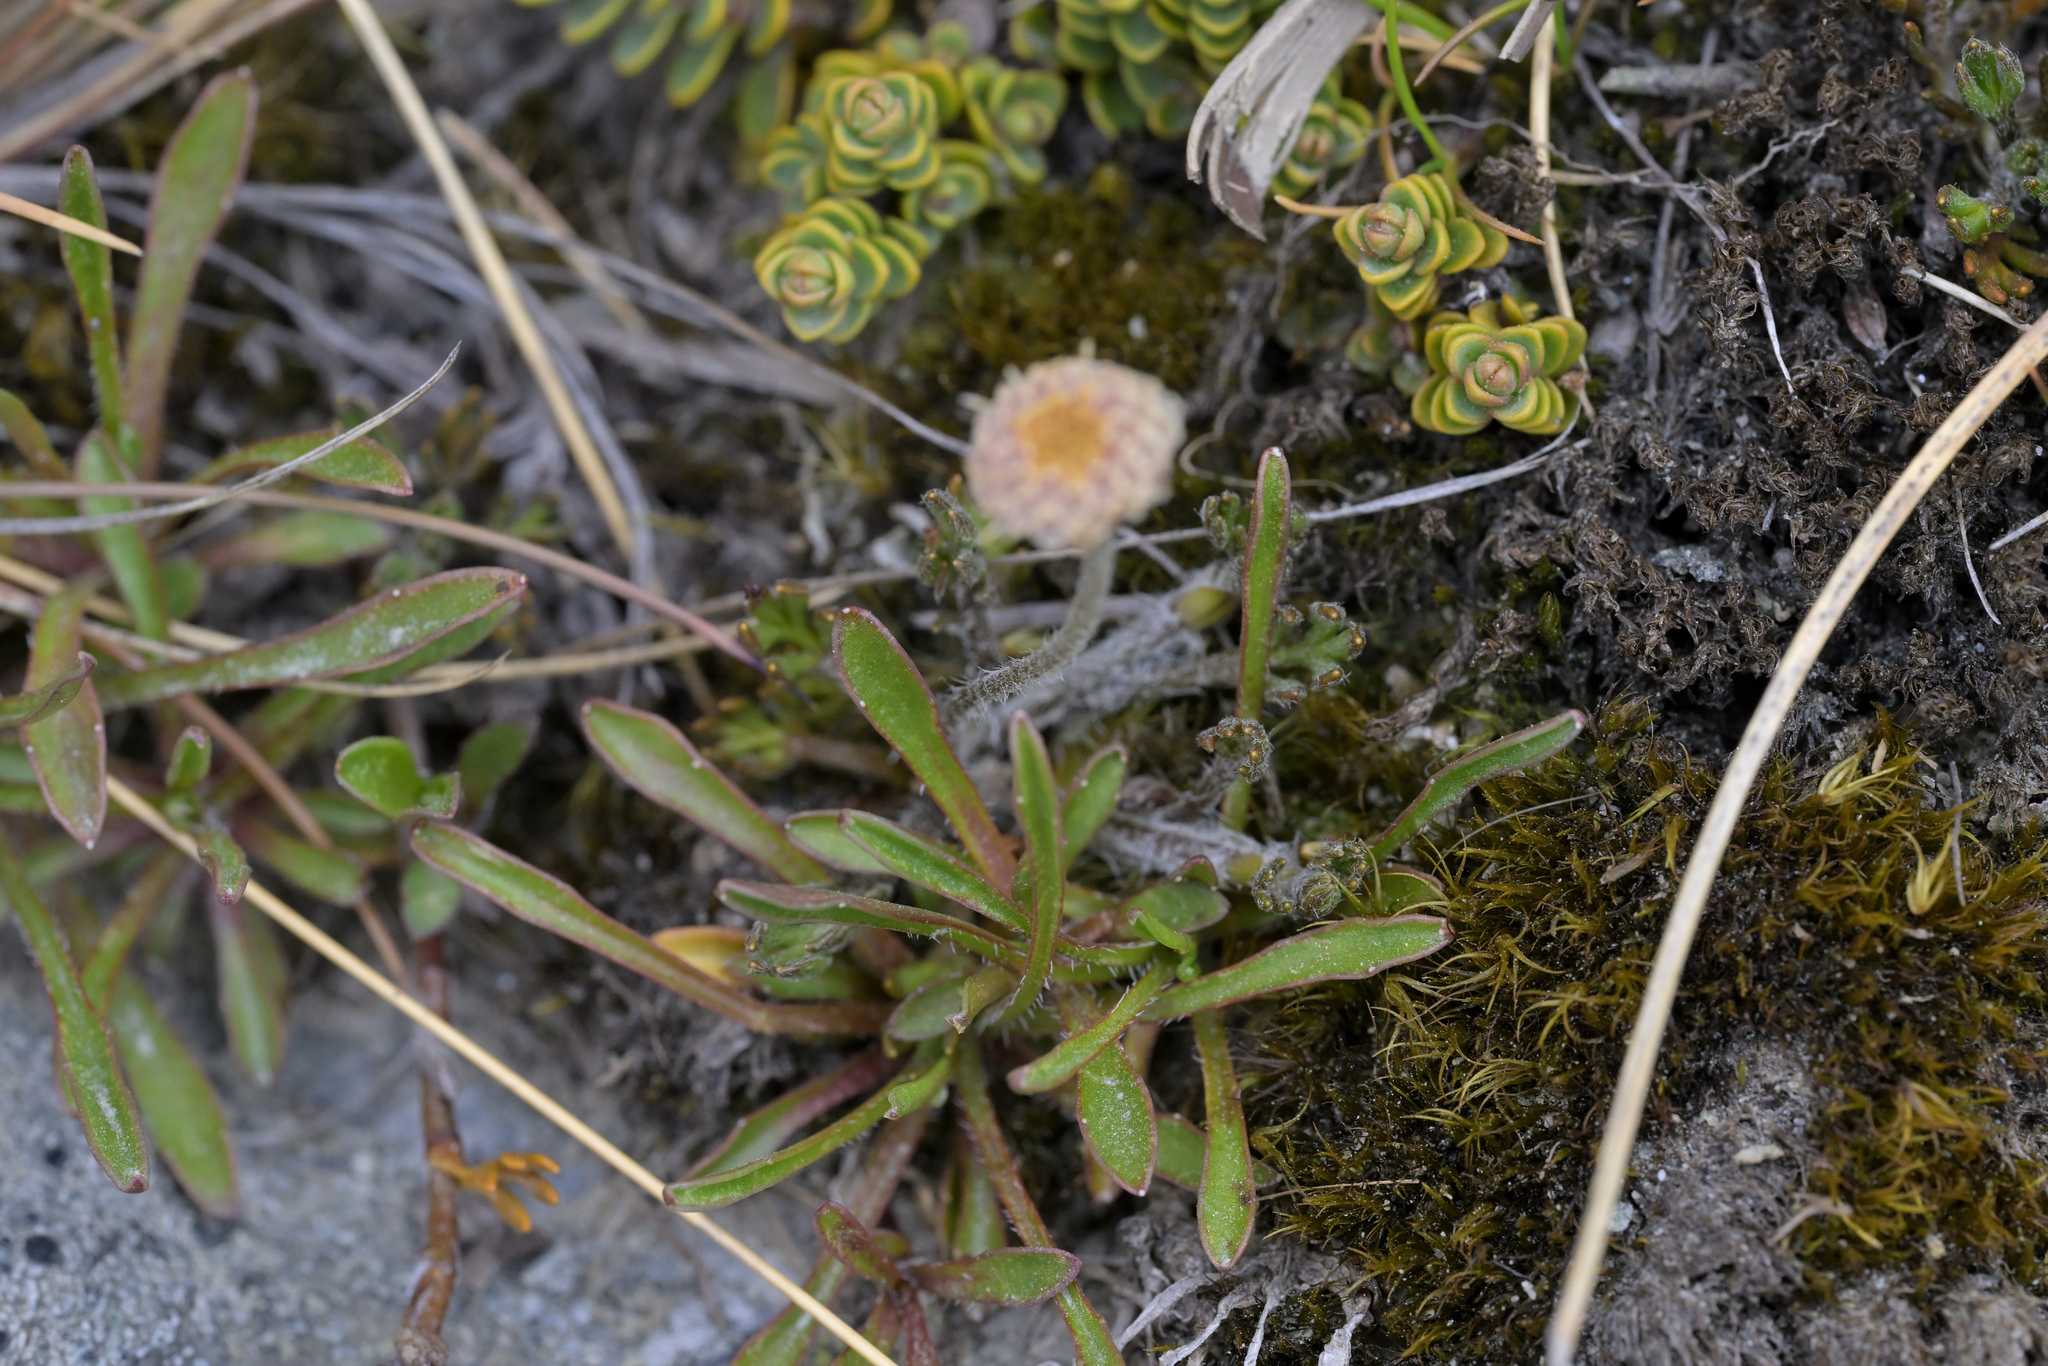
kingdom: Plantae
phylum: Tracheophyta
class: Magnoliopsida
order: Asterales
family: Asteraceae
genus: Leptinella
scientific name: Leptinella pectinata
